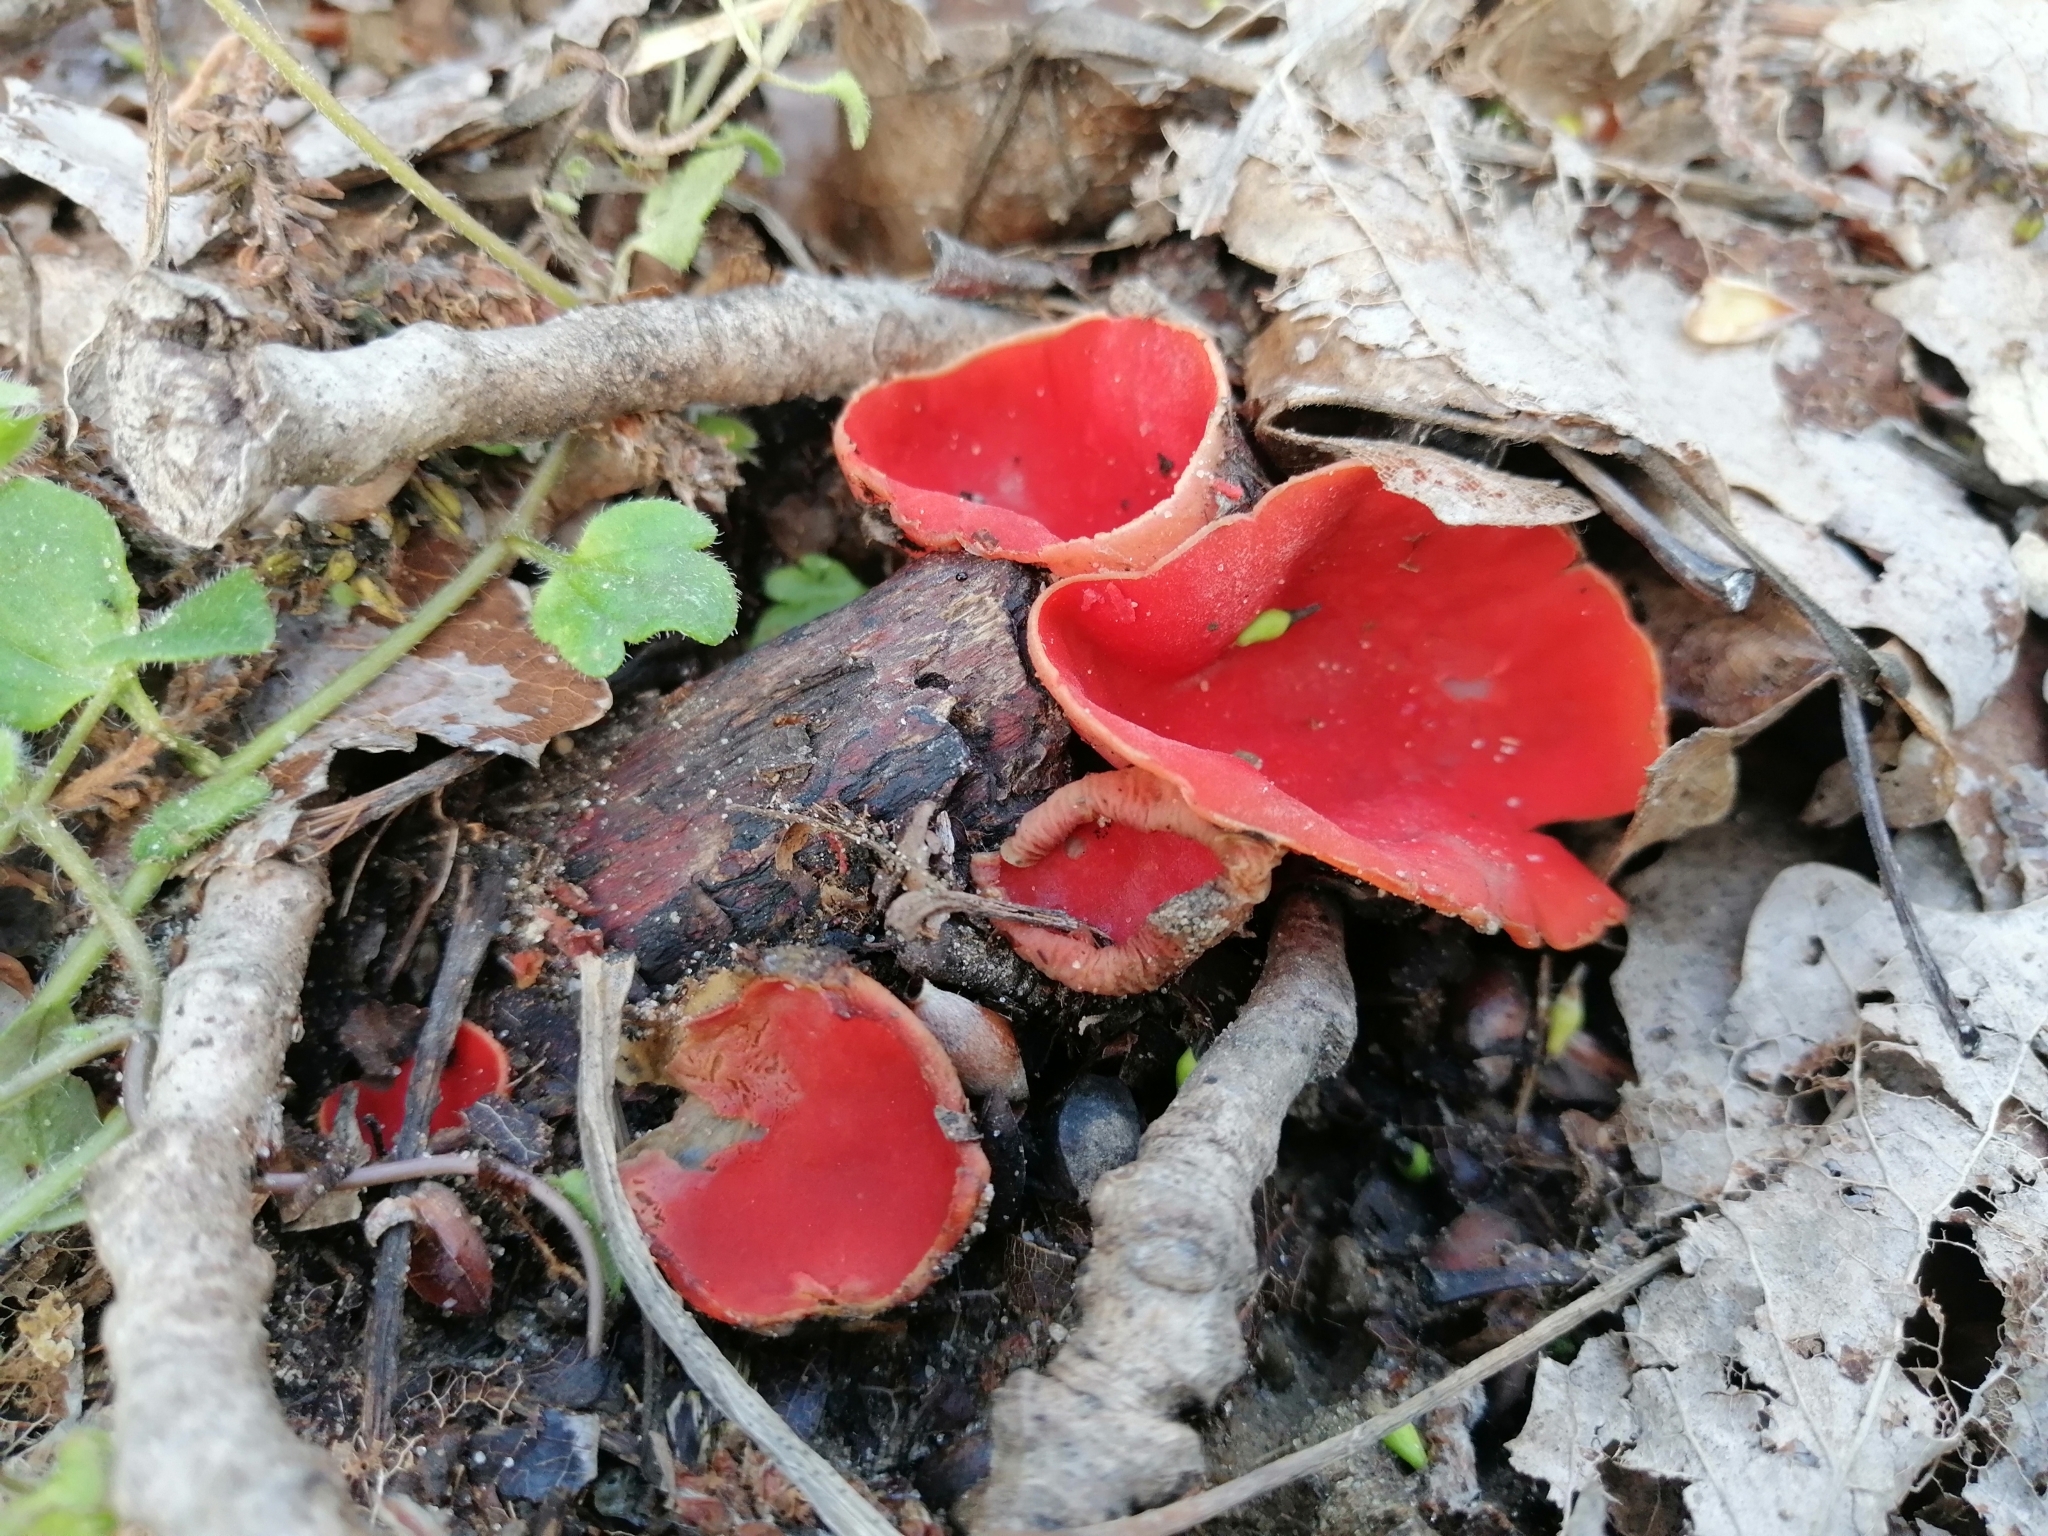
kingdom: Fungi
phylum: Ascomycota
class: Pezizomycetes
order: Pezizales
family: Sarcoscyphaceae
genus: Sarcoscypha
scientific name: Sarcoscypha
